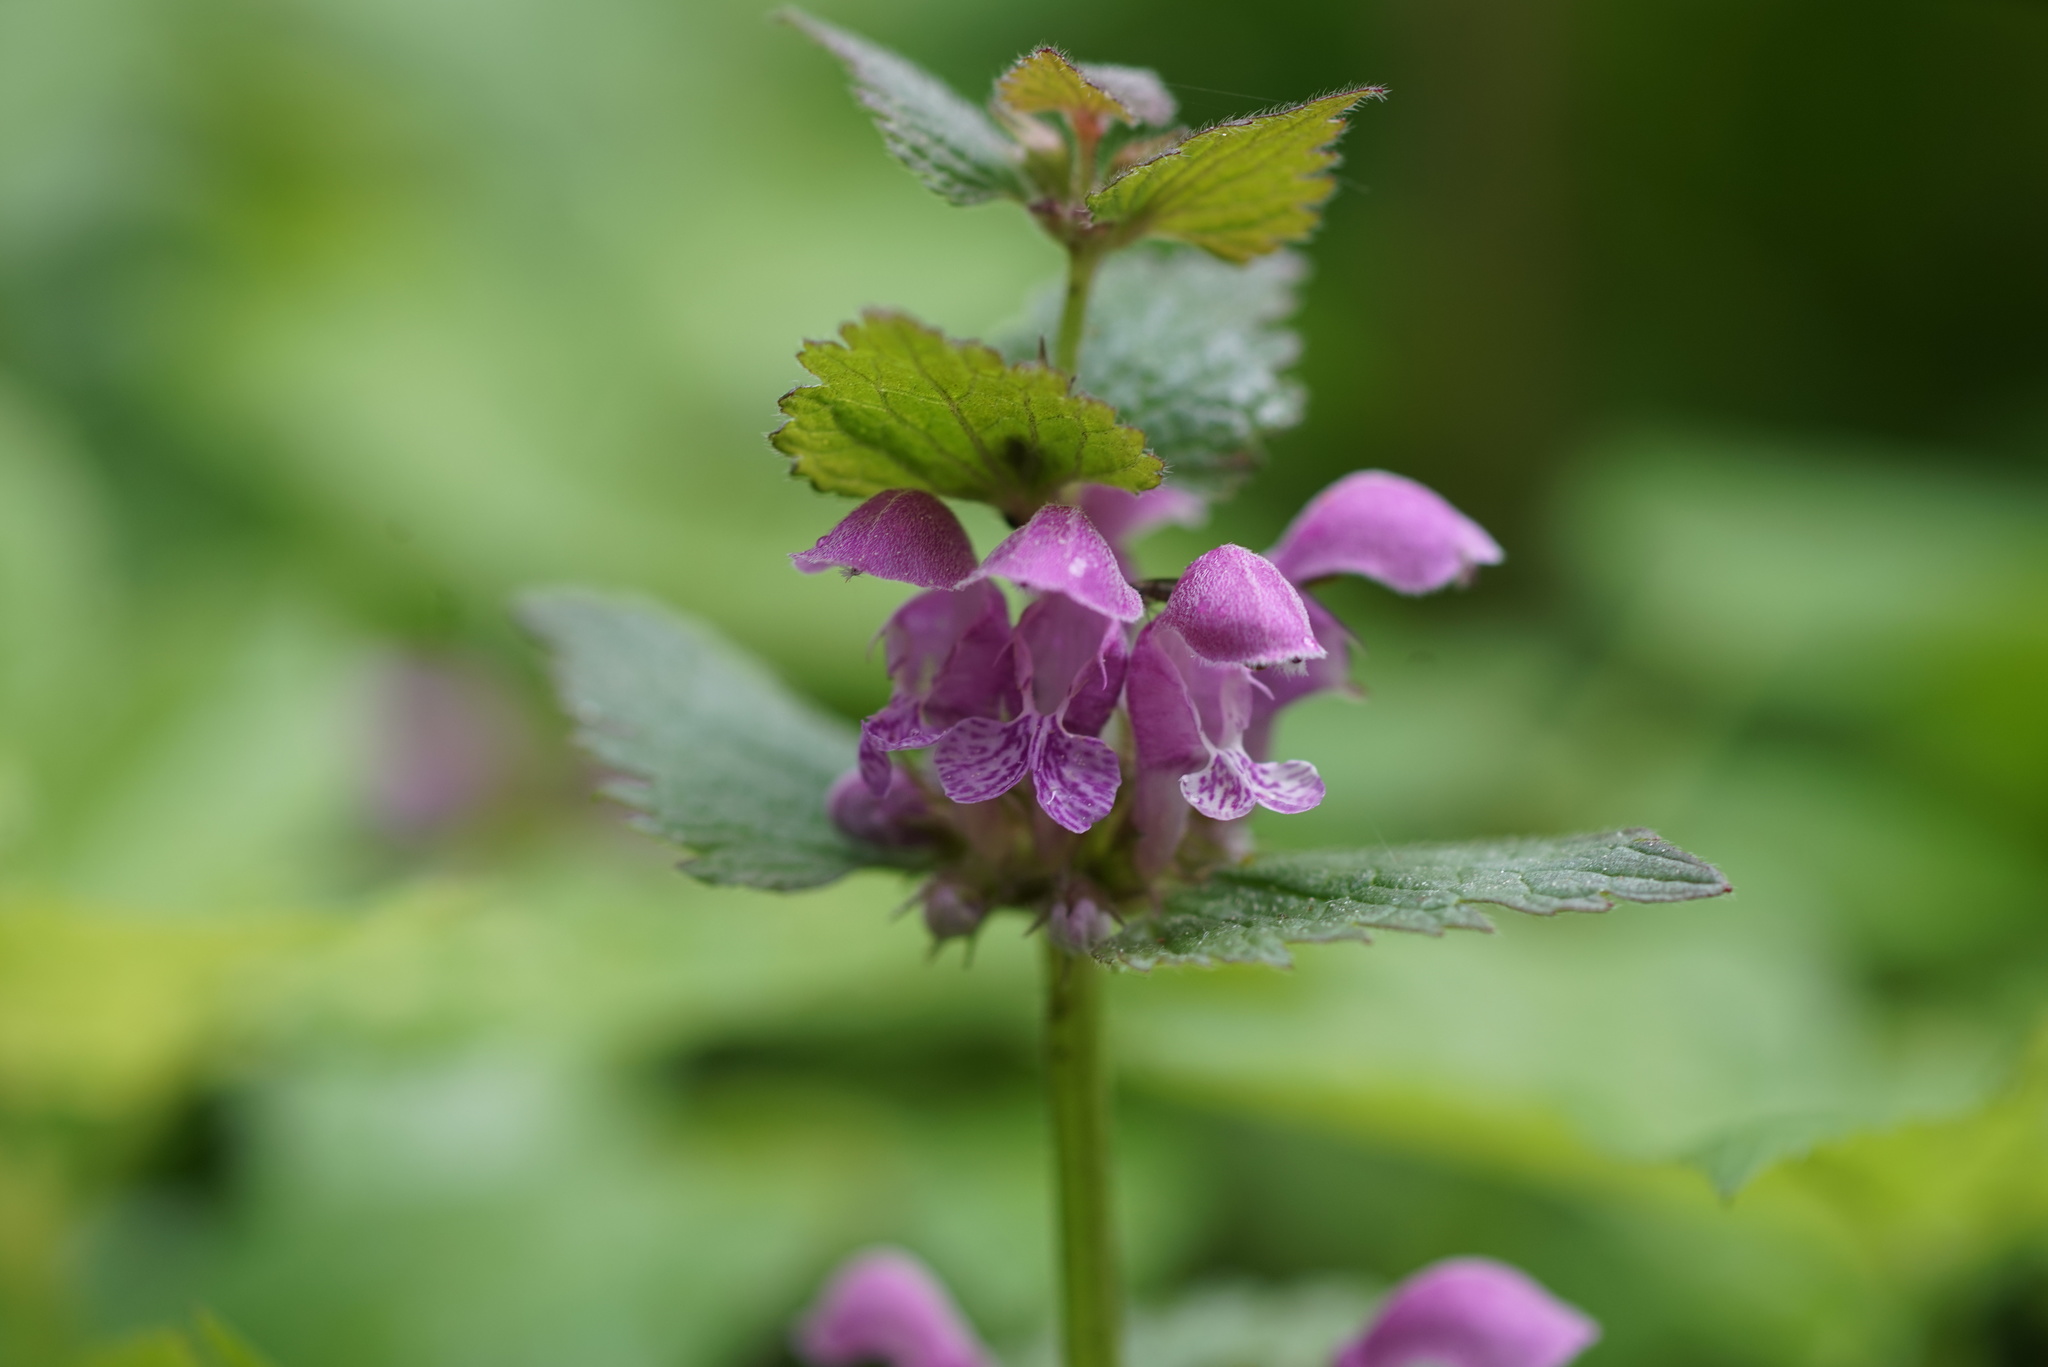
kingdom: Plantae
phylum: Tracheophyta
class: Magnoliopsida
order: Lamiales
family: Lamiaceae
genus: Lamium
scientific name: Lamium maculatum
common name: Spotted dead-nettle
